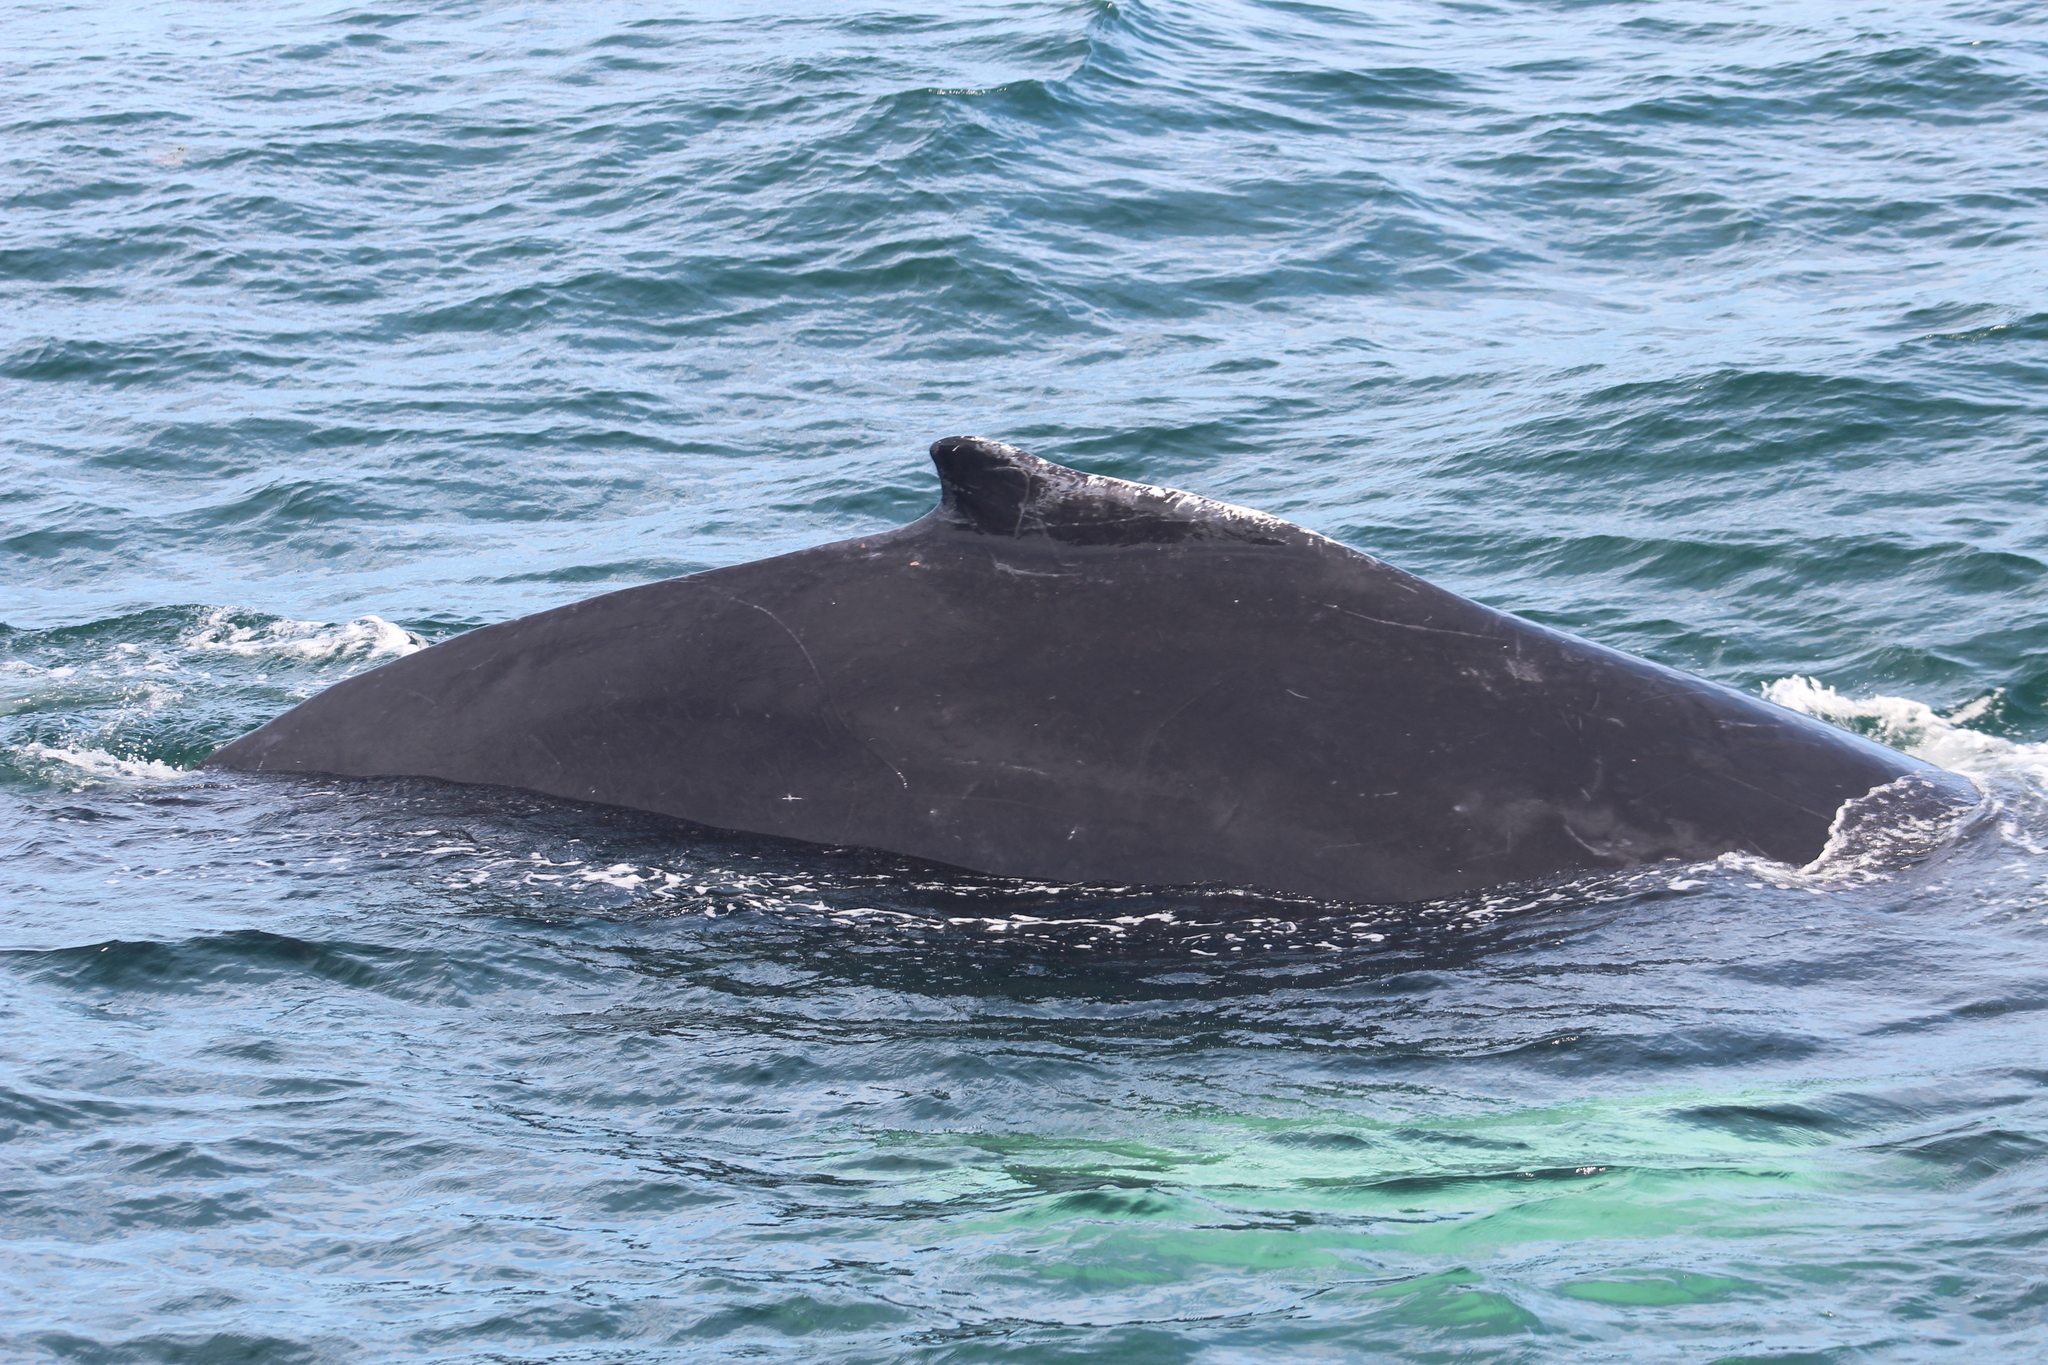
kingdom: Animalia
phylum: Chordata
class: Mammalia
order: Cetacea
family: Balaenopteridae
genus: Megaptera
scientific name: Megaptera novaeangliae
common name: Humpback whale
